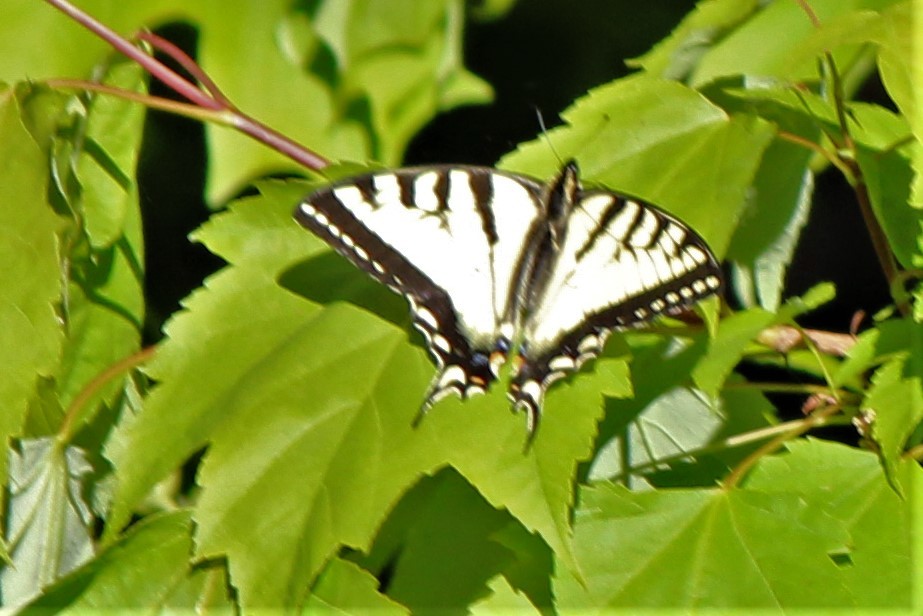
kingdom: Animalia
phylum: Arthropoda
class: Insecta
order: Lepidoptera
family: Papilionidae
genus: Papilio
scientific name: Papilio canadensis
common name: Canadian tiger swallowtail
